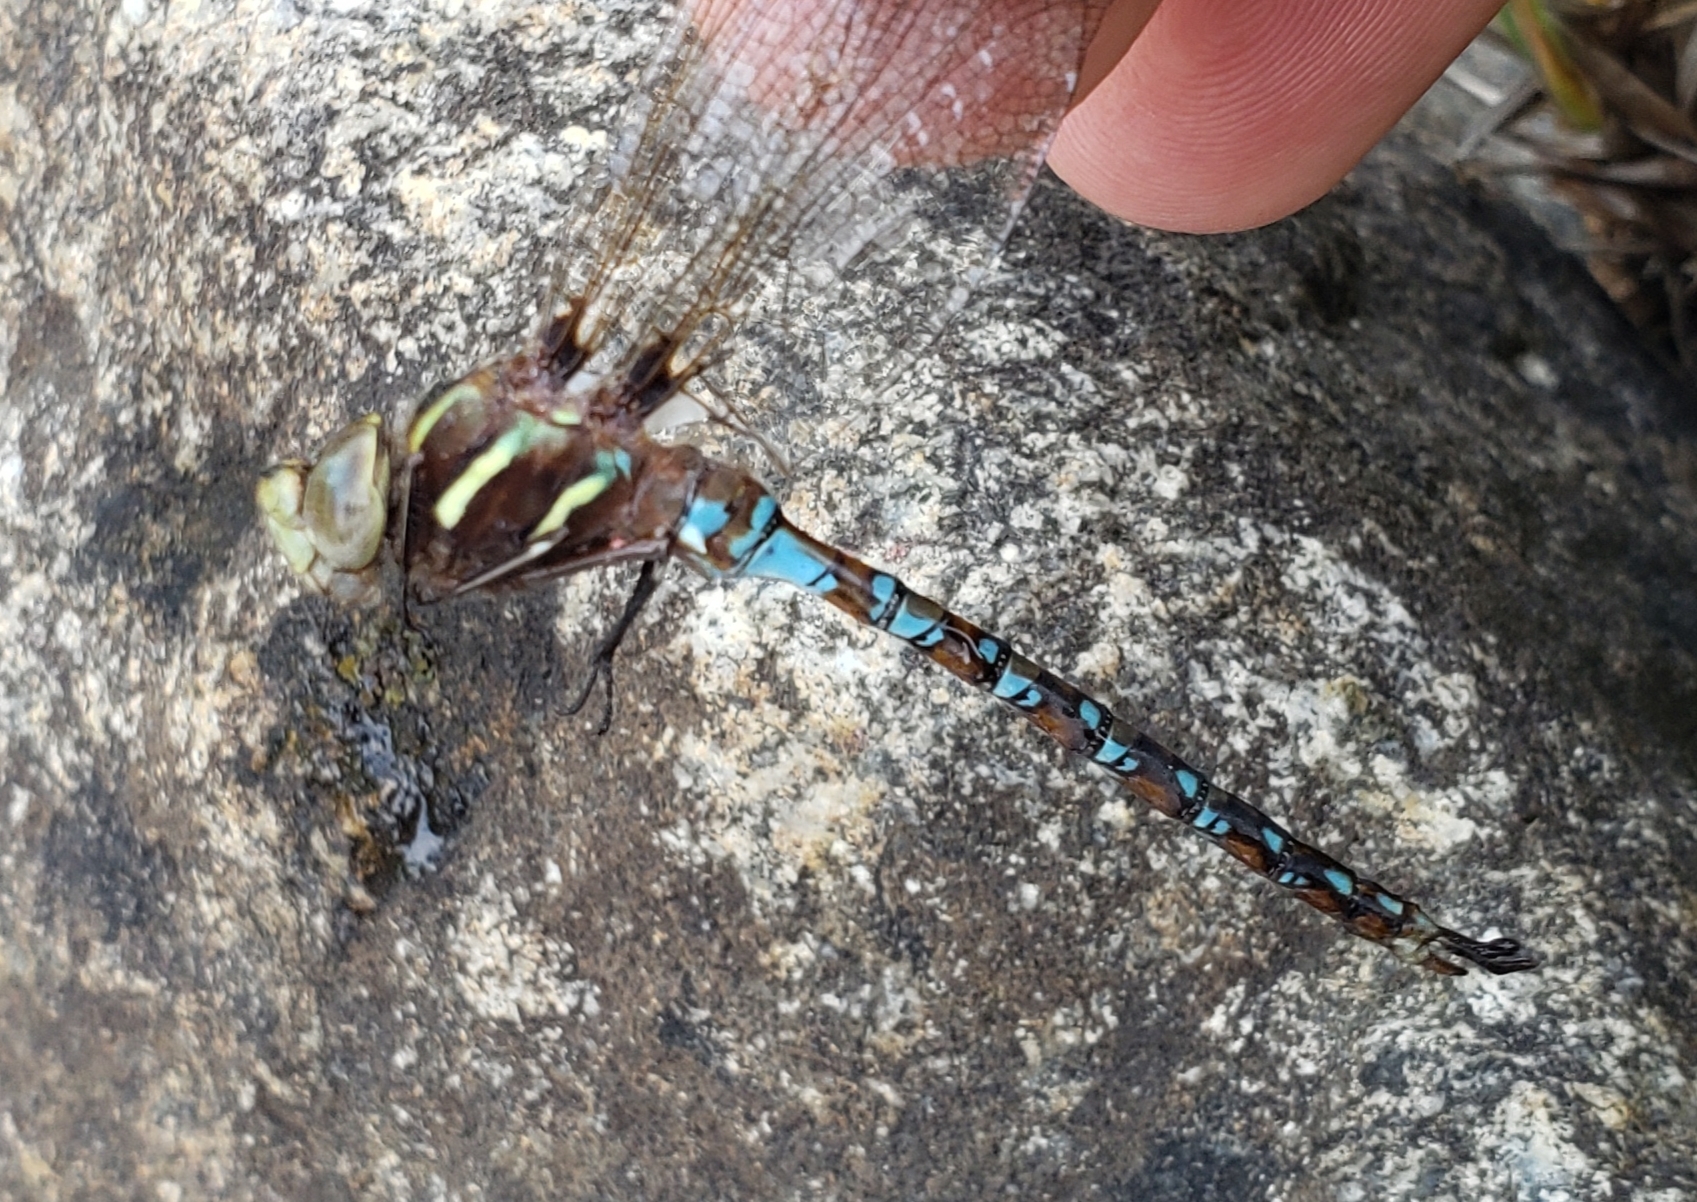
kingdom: Animalia
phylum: Arthropoda
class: Insecta
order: Odonata
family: Aeshnidae
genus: Basiaeschna
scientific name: Basiaeschna janata
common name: Springtime darner
